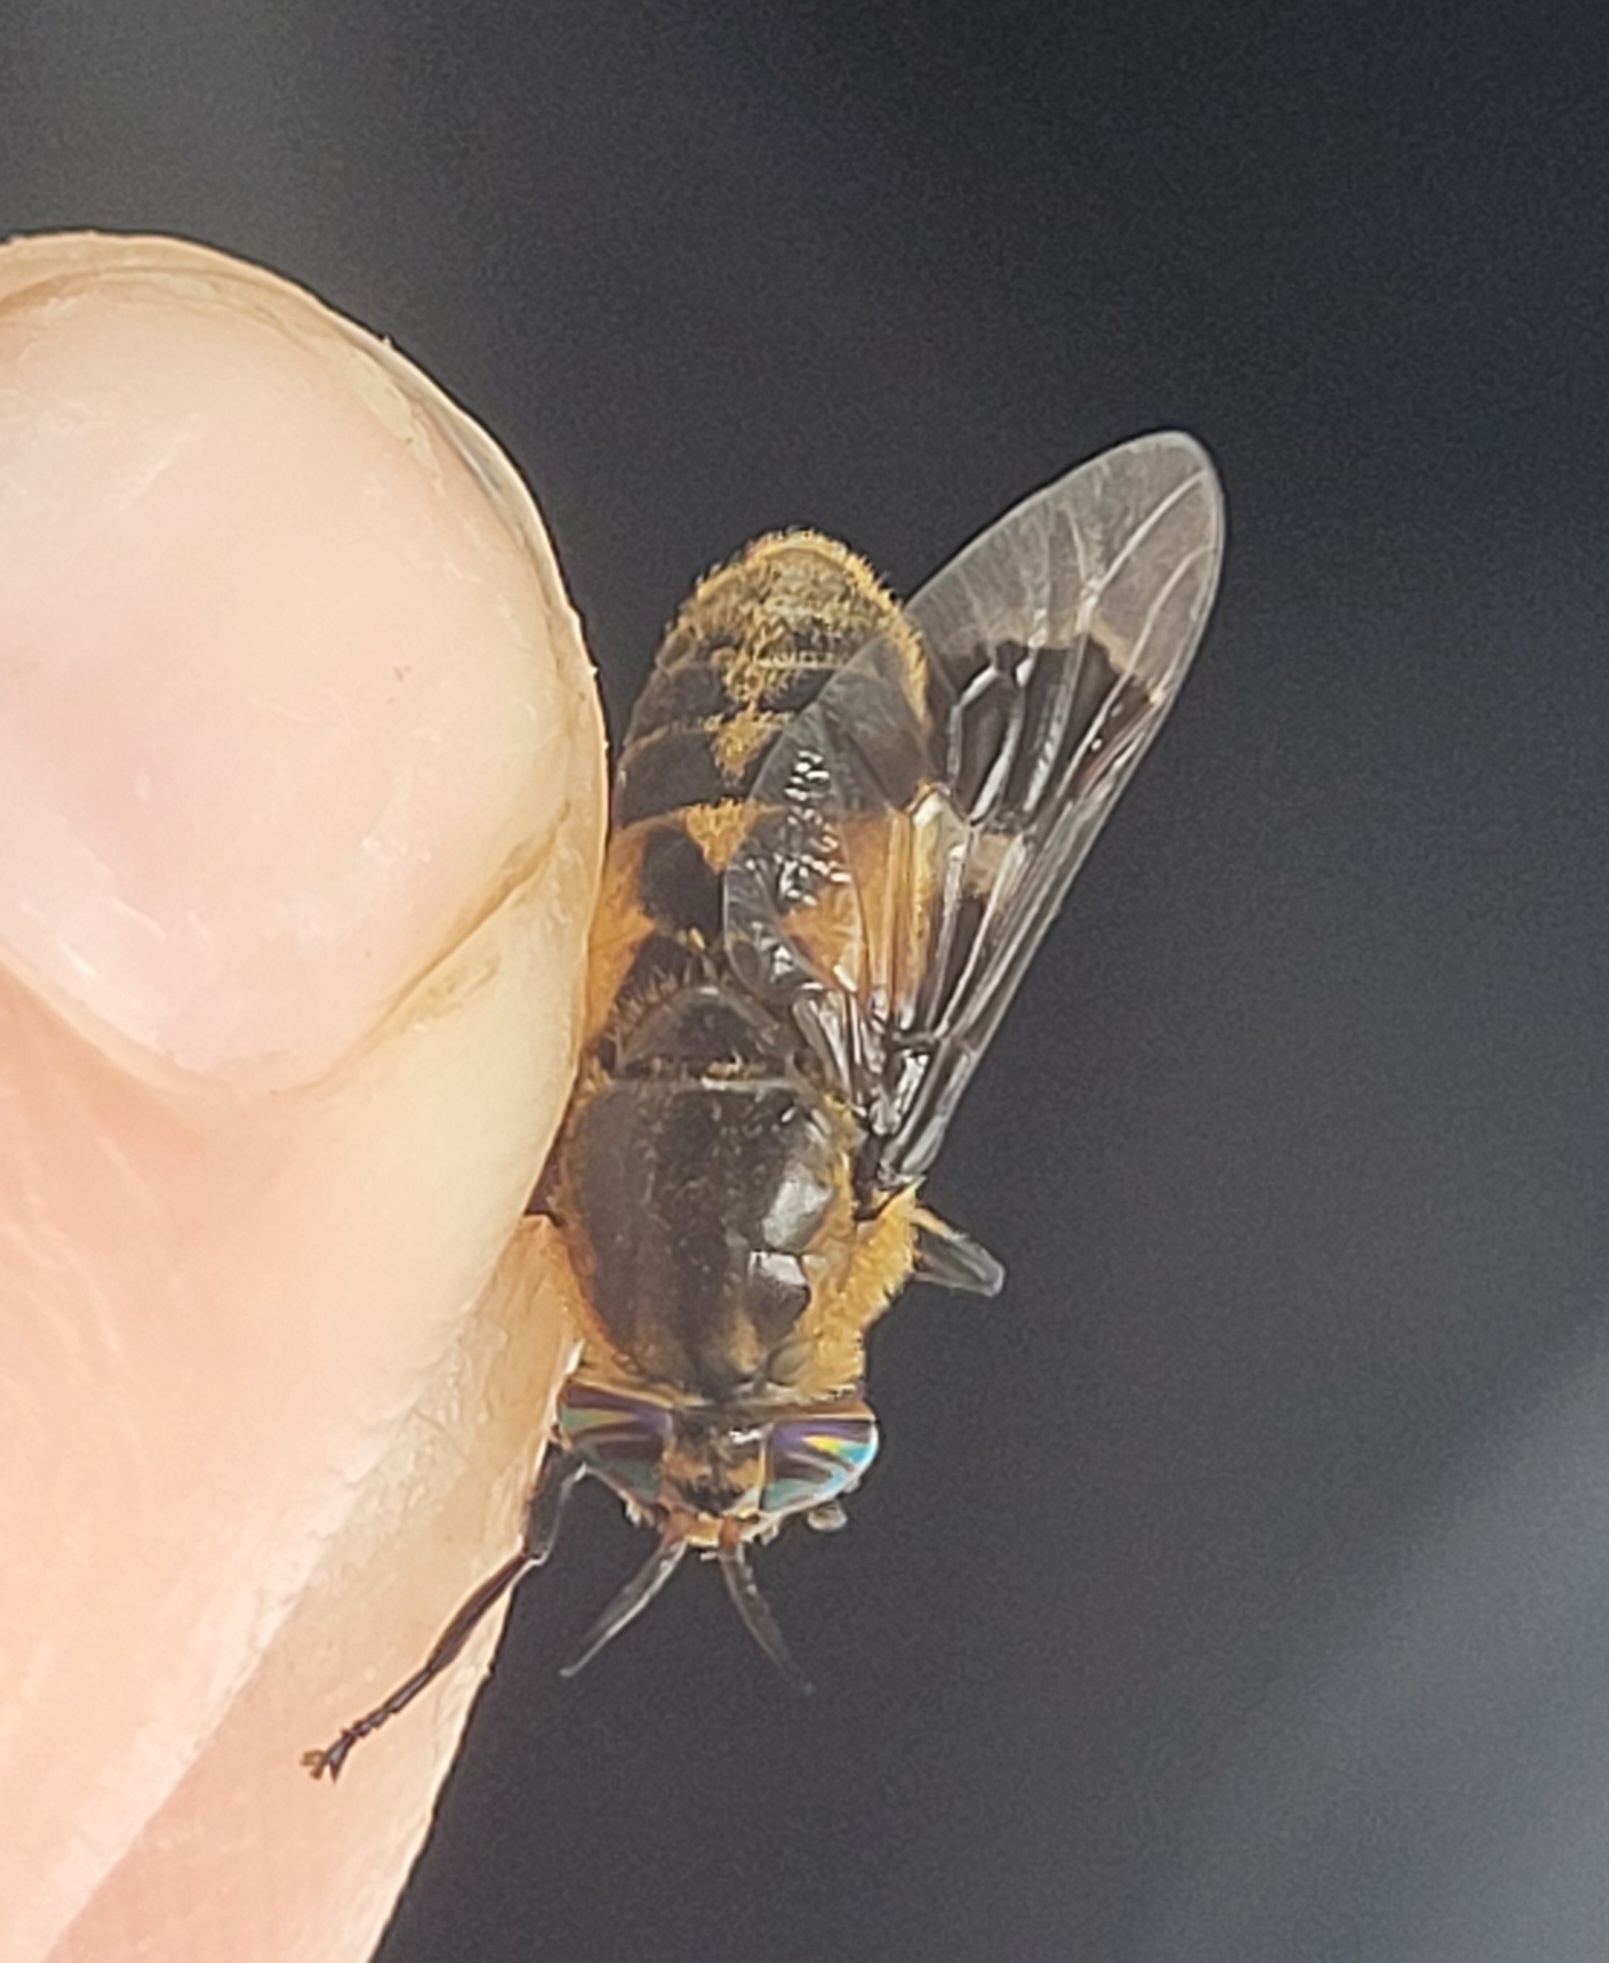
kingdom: Animalia
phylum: Arthropoda
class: Insecta
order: Diptera
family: Tabanidae
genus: Chrysops
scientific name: Chrysops excitans
